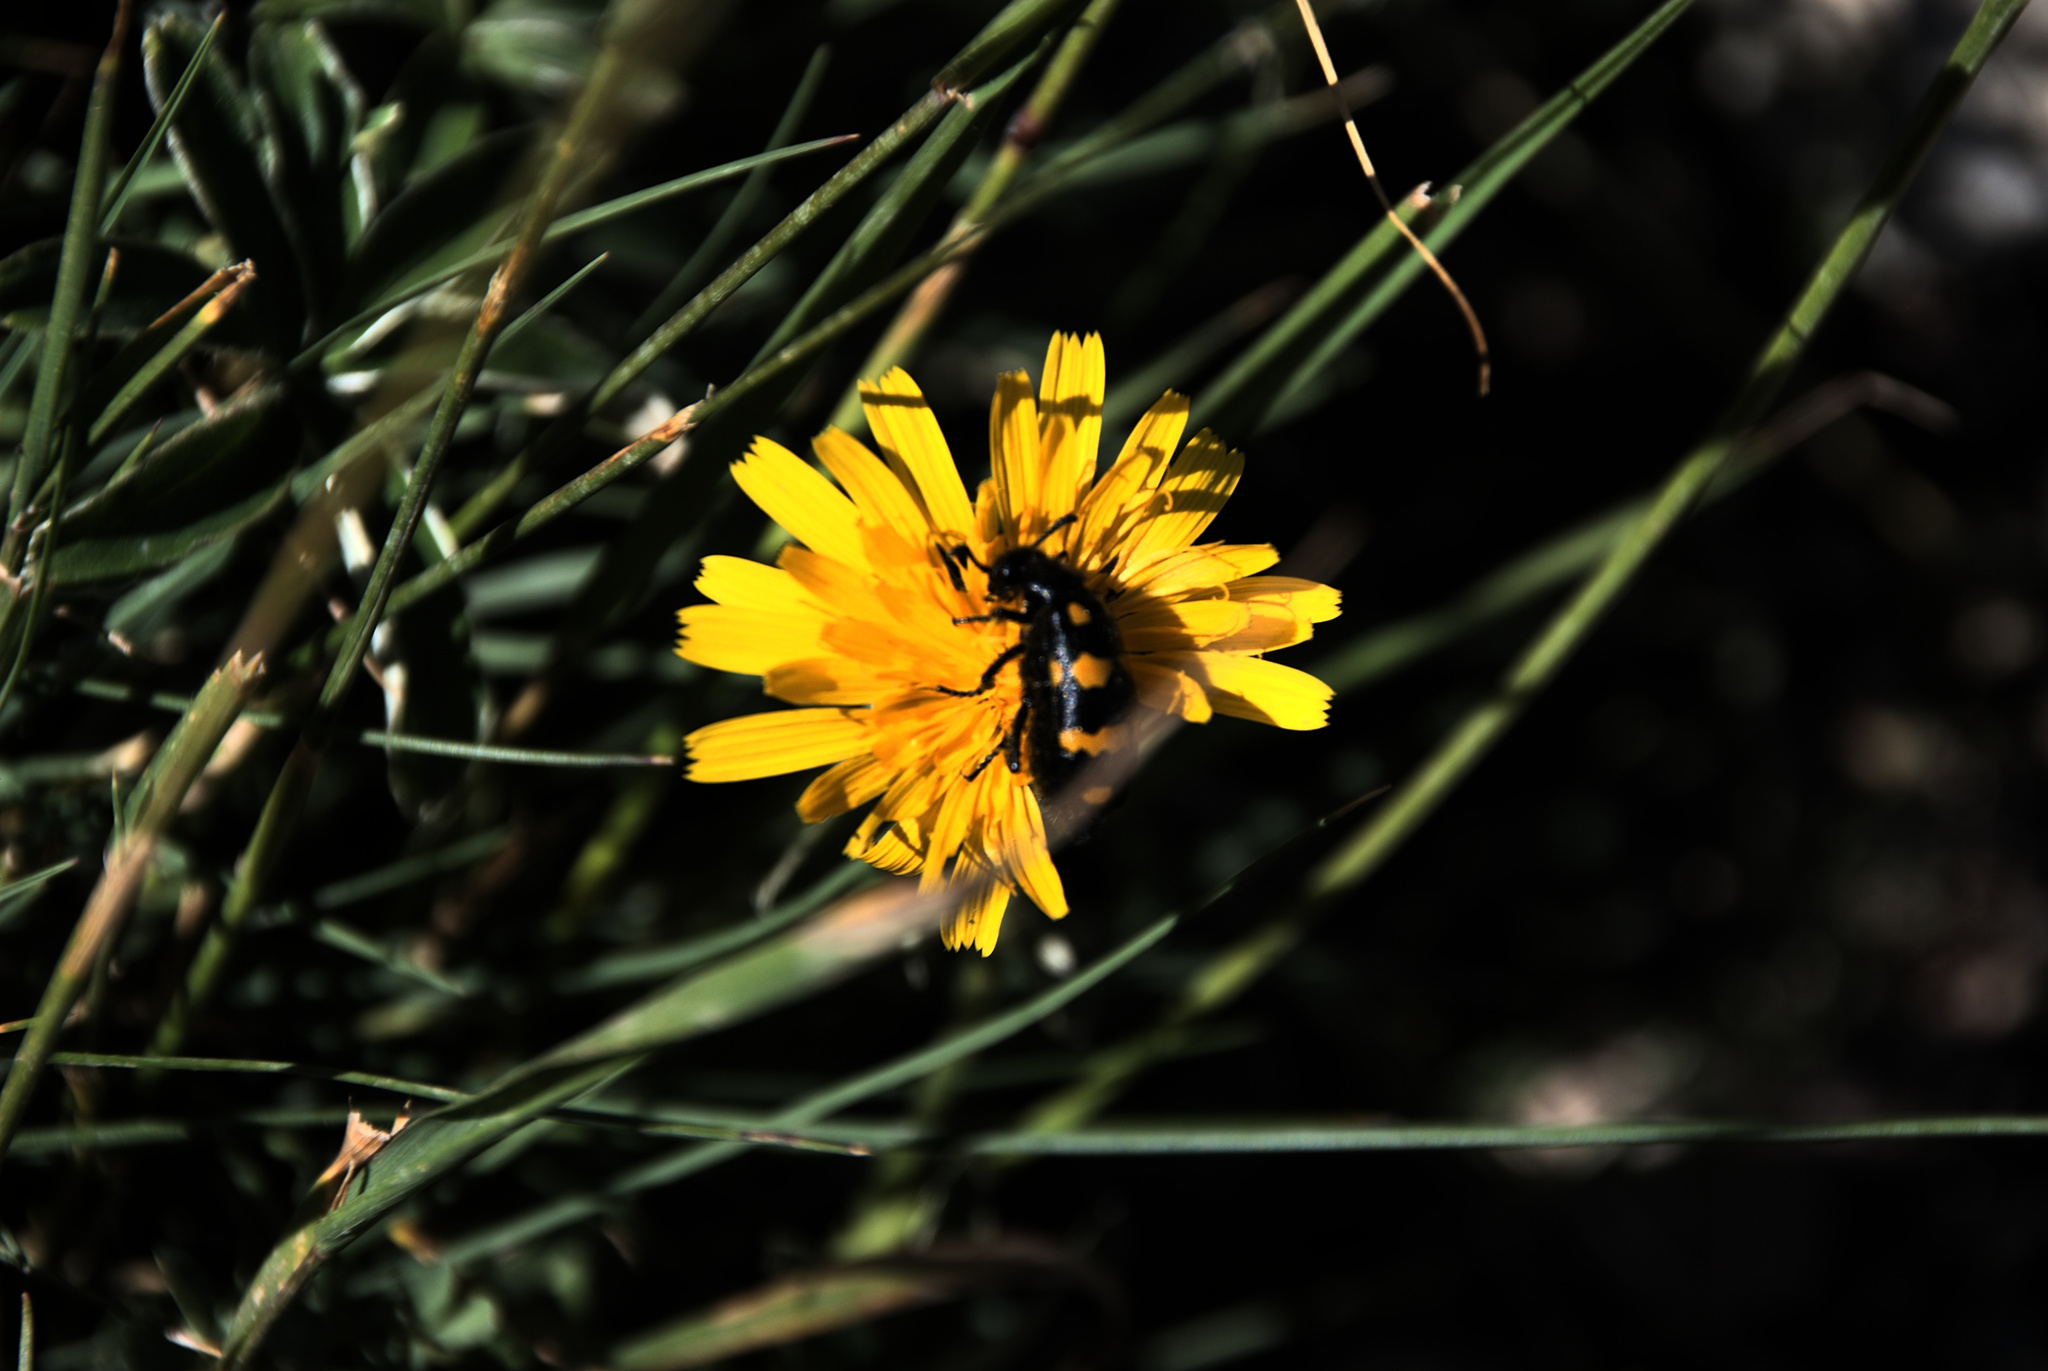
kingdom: Animalia
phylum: Arthropoda
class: Insecta
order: Coleoptera
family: Meloidae
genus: Hycleus
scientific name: Hycleus polymorphus
